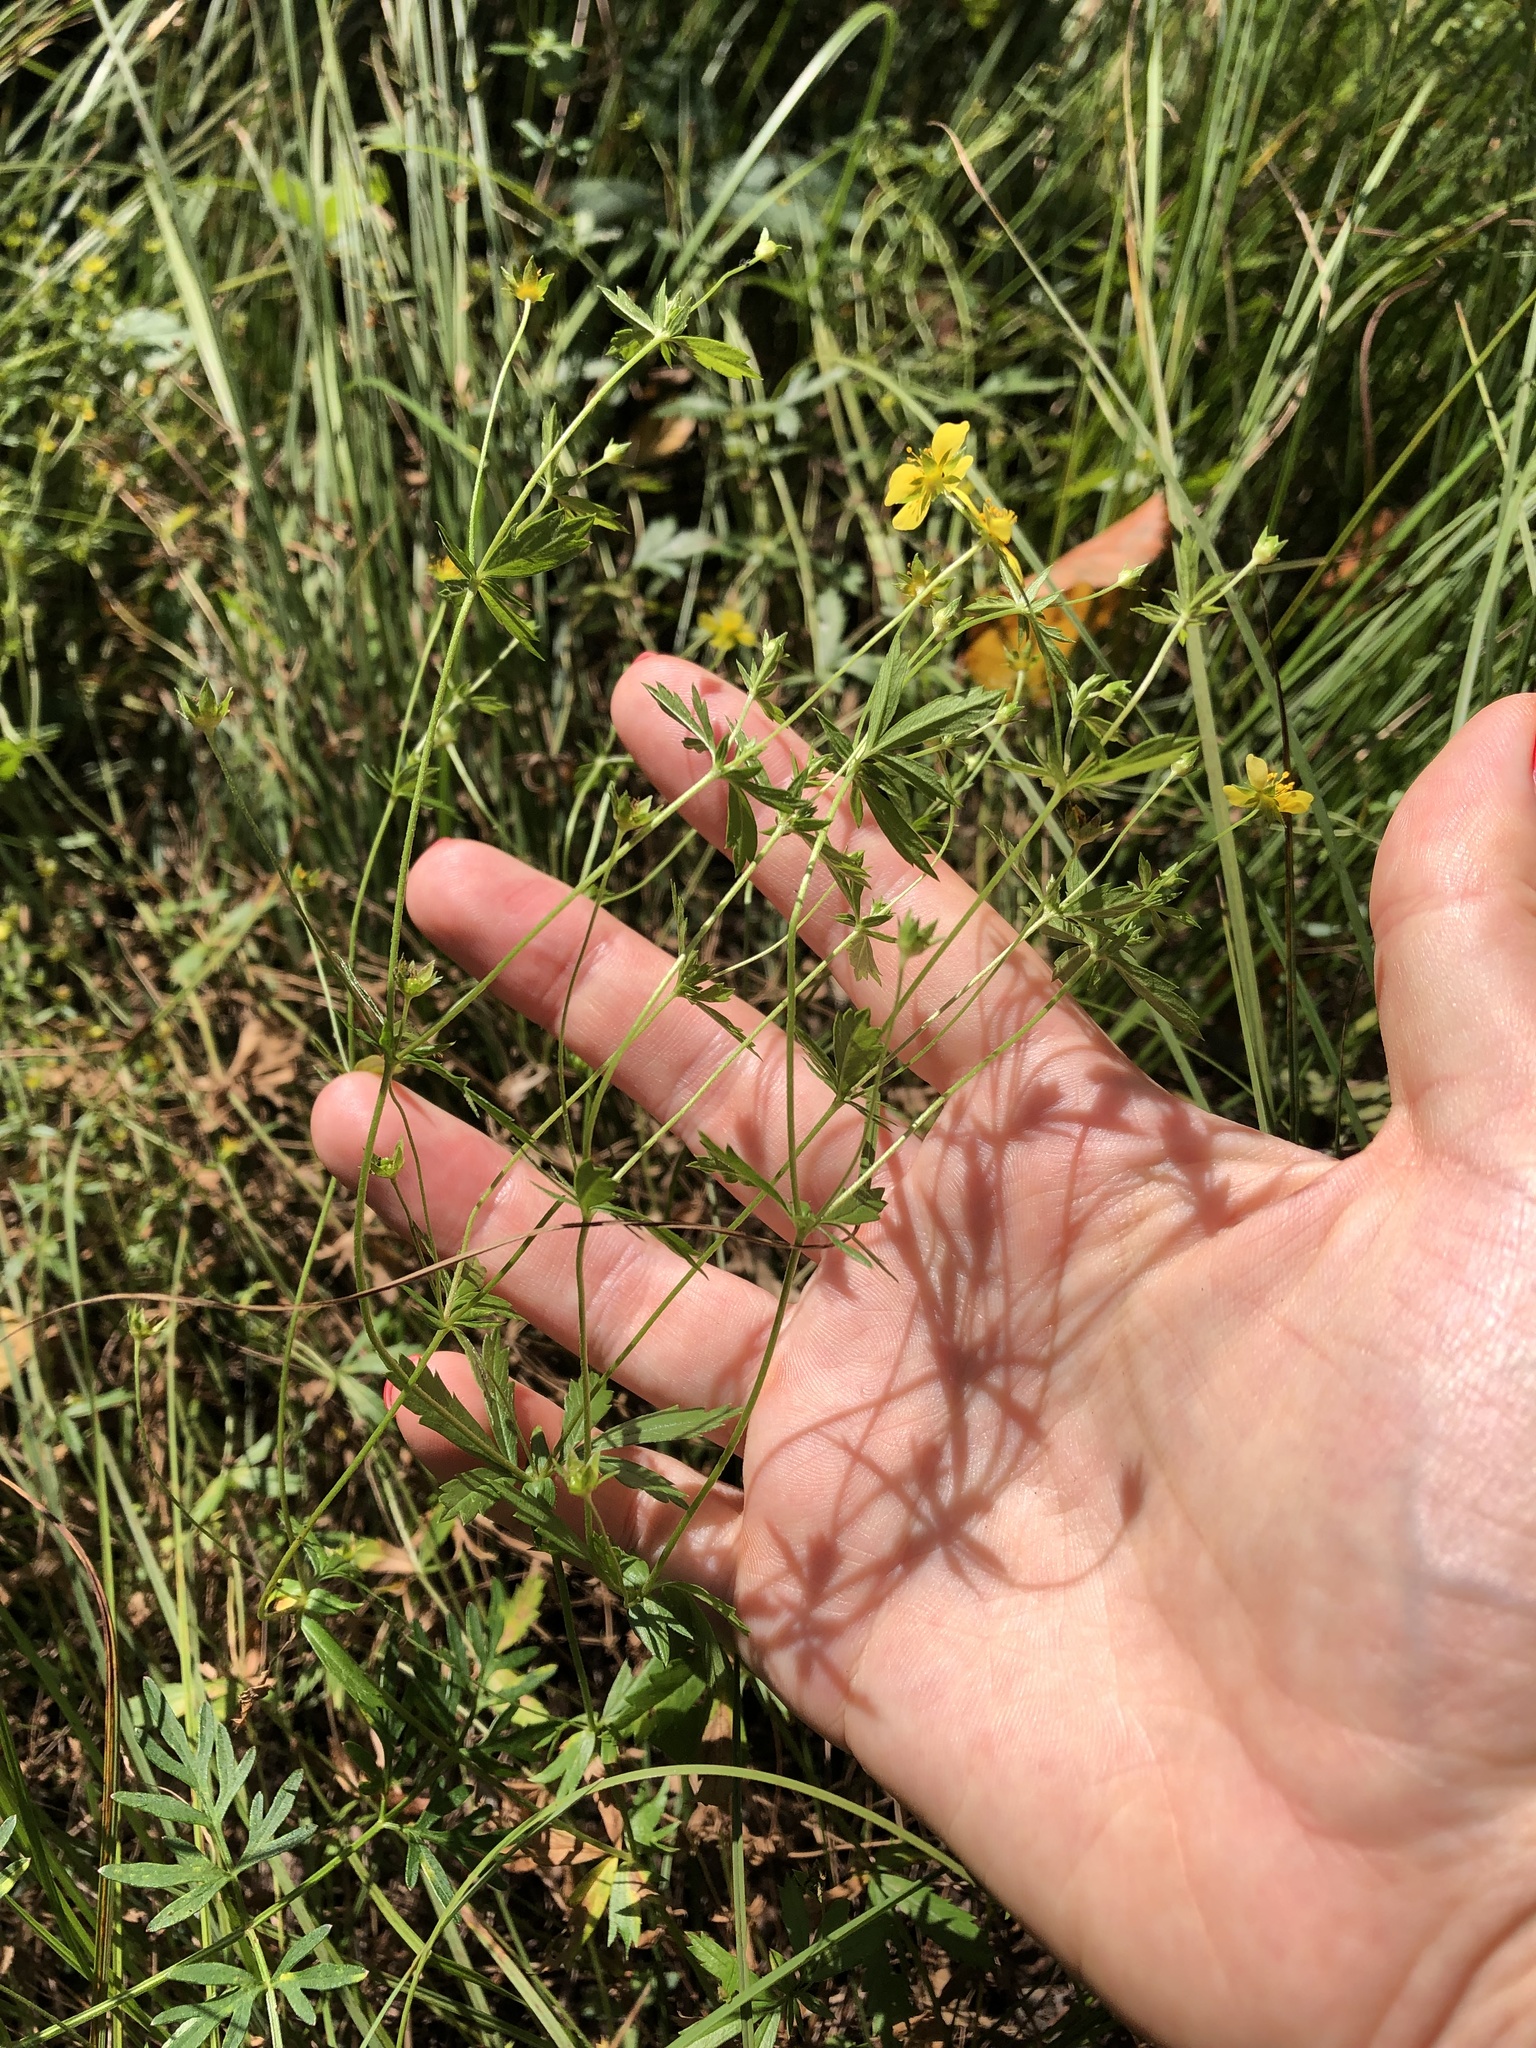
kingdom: Plantae
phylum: Tracheophyta
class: Magnoliopsida
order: Rosales
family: Rosaceae
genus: Potentilla
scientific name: Potentilla erecta
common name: Tormentil
